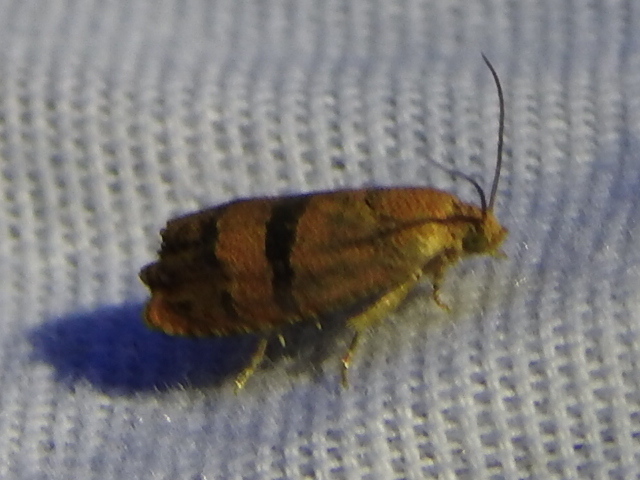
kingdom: Animalia
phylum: Arthropoda
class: Insecta
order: Lepidoptera
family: Tortricidae
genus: Cydia
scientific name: Cydia latiferreana
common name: Filbertworm moth
